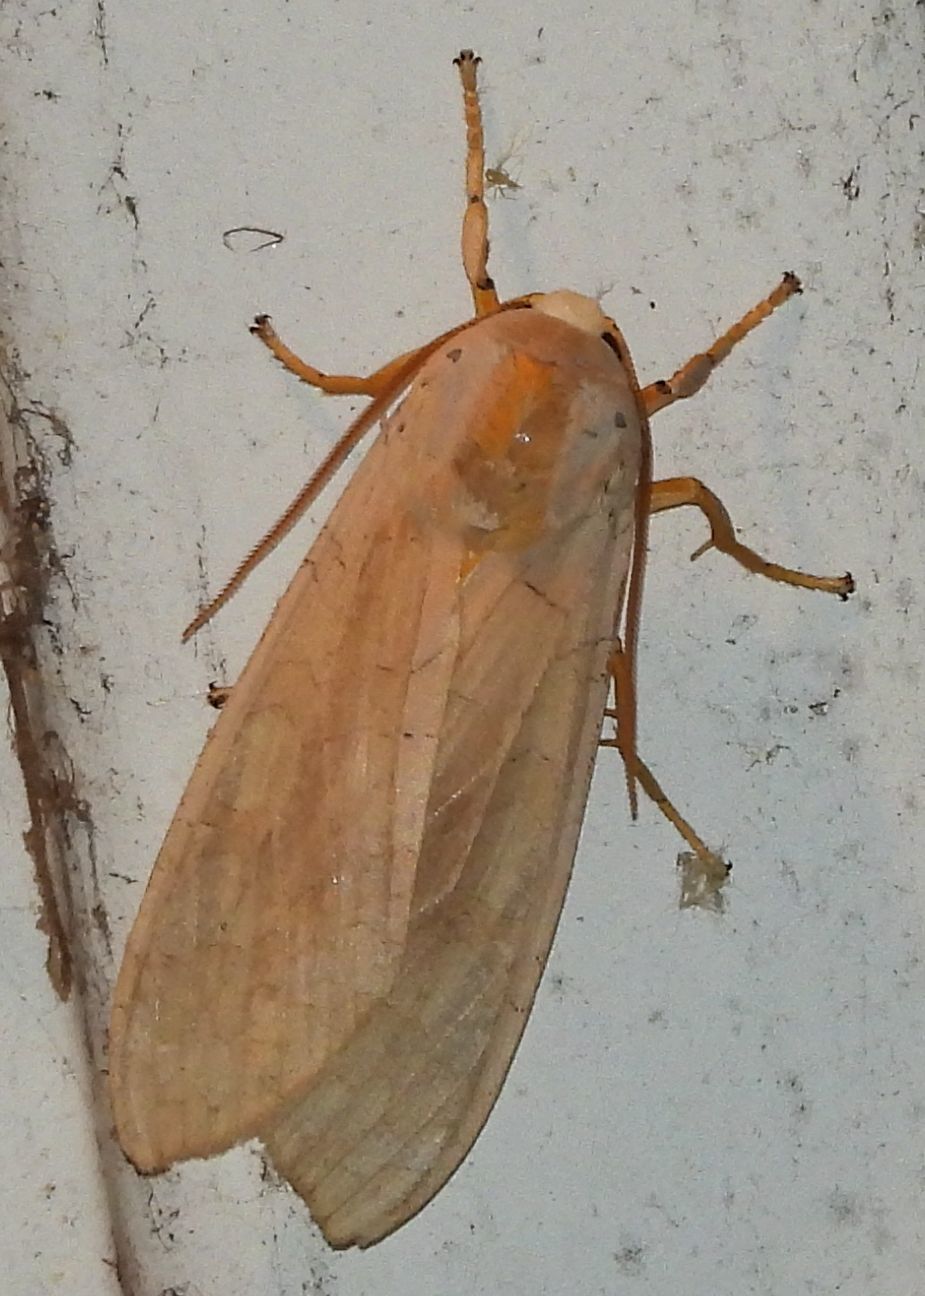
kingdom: Animalia
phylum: Arthropoda
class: Insecta
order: Lepidoptera
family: Erebidae
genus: Halysidota
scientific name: Halysidota tessellaris
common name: Banded tussock moth
